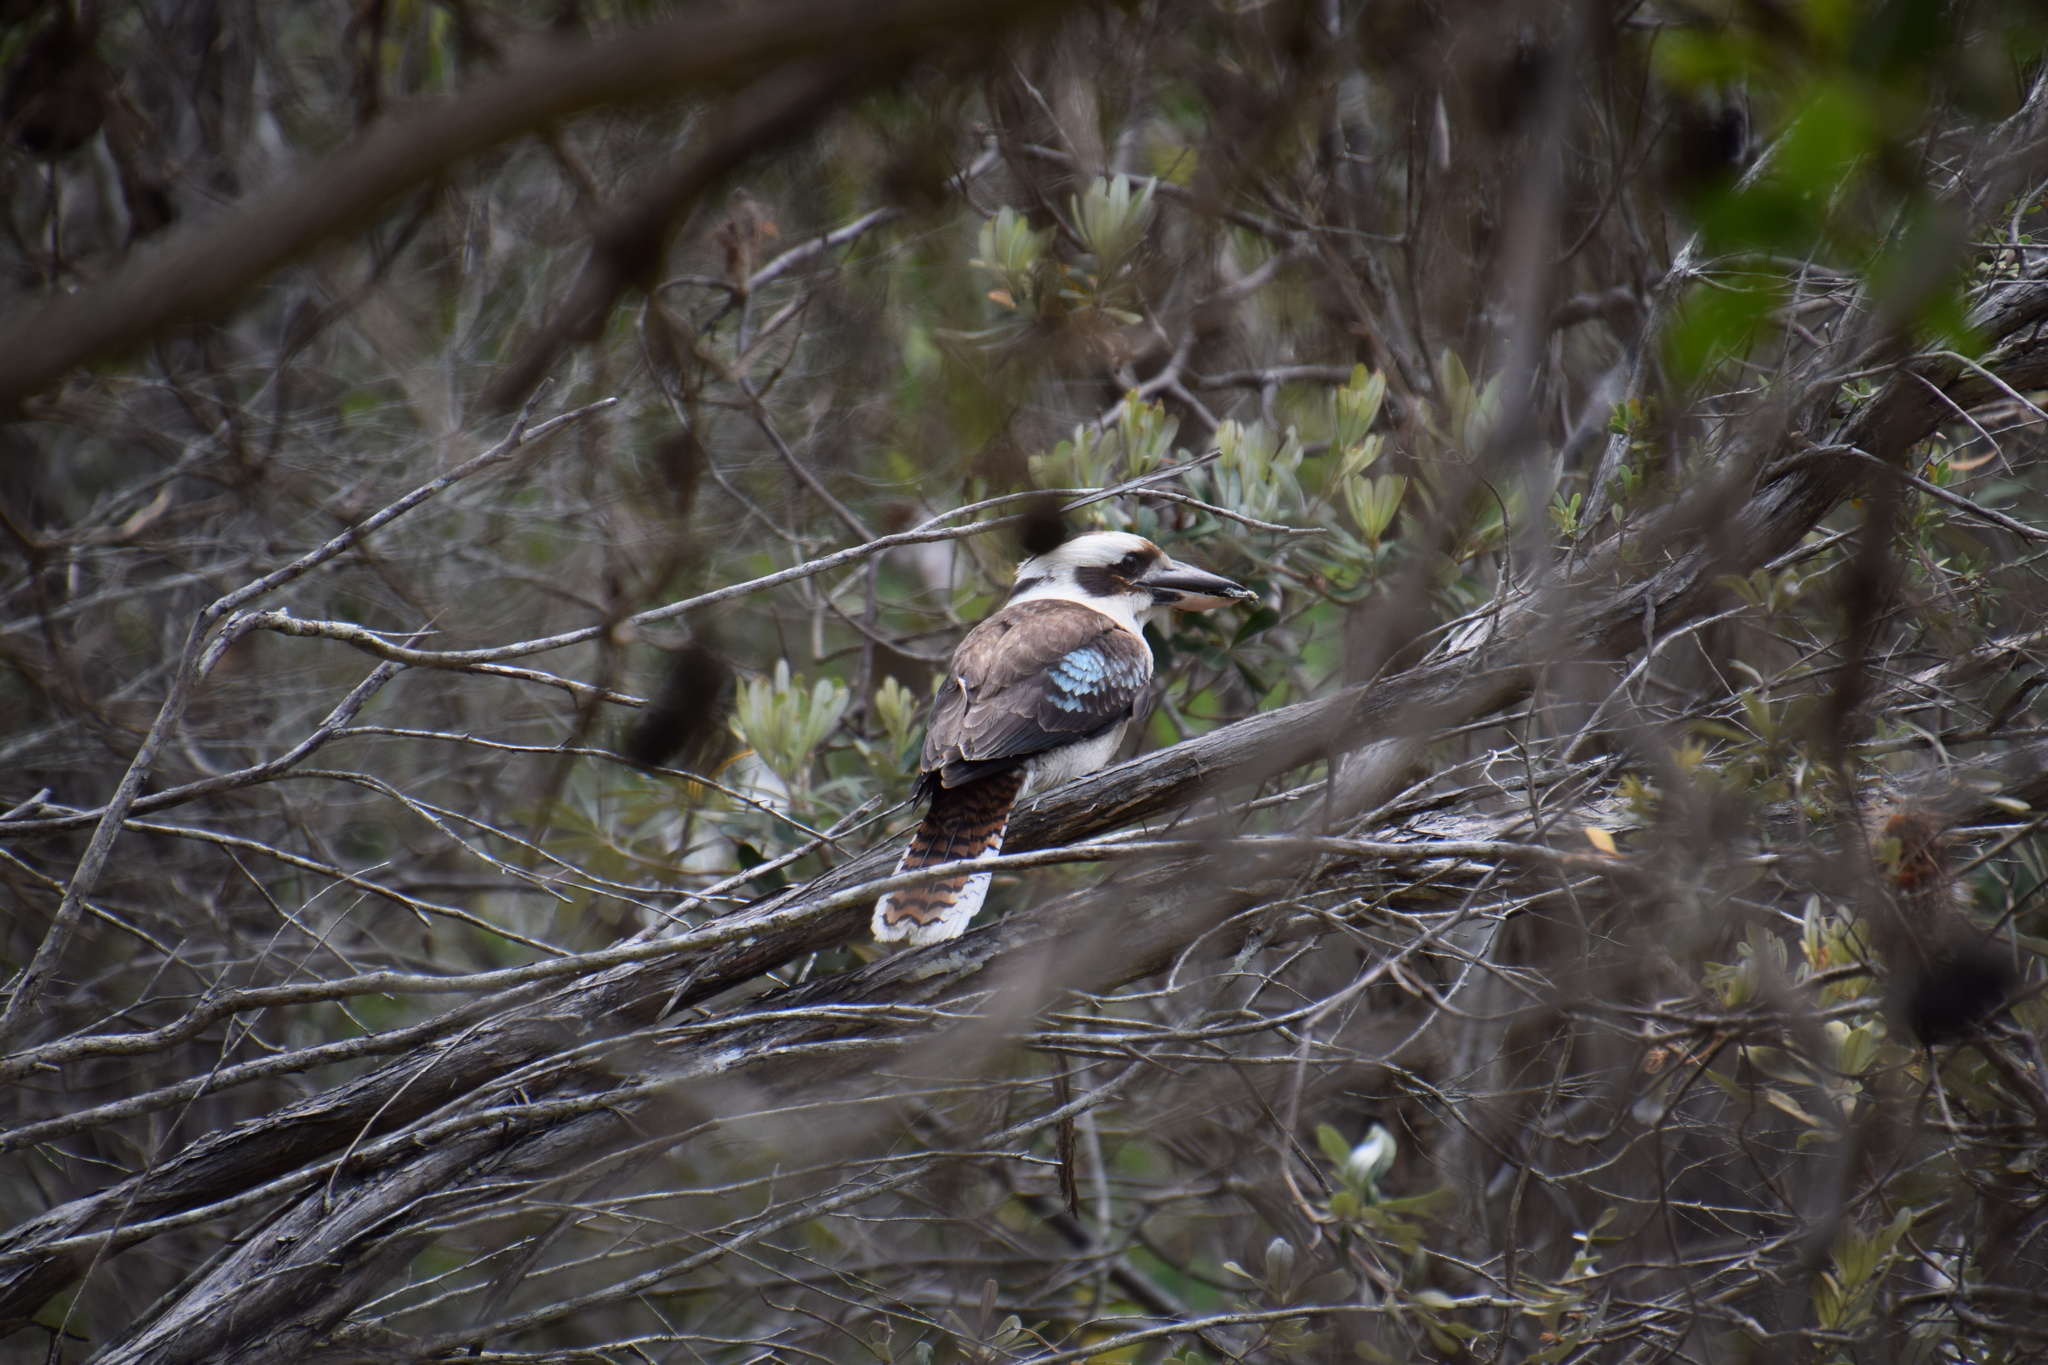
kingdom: Animalia
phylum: Chordata
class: Aves
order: Coraciiformes
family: Alcedinidae
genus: Dacelo
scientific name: Dacelo novaeguineae
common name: Laughing kookaburra
